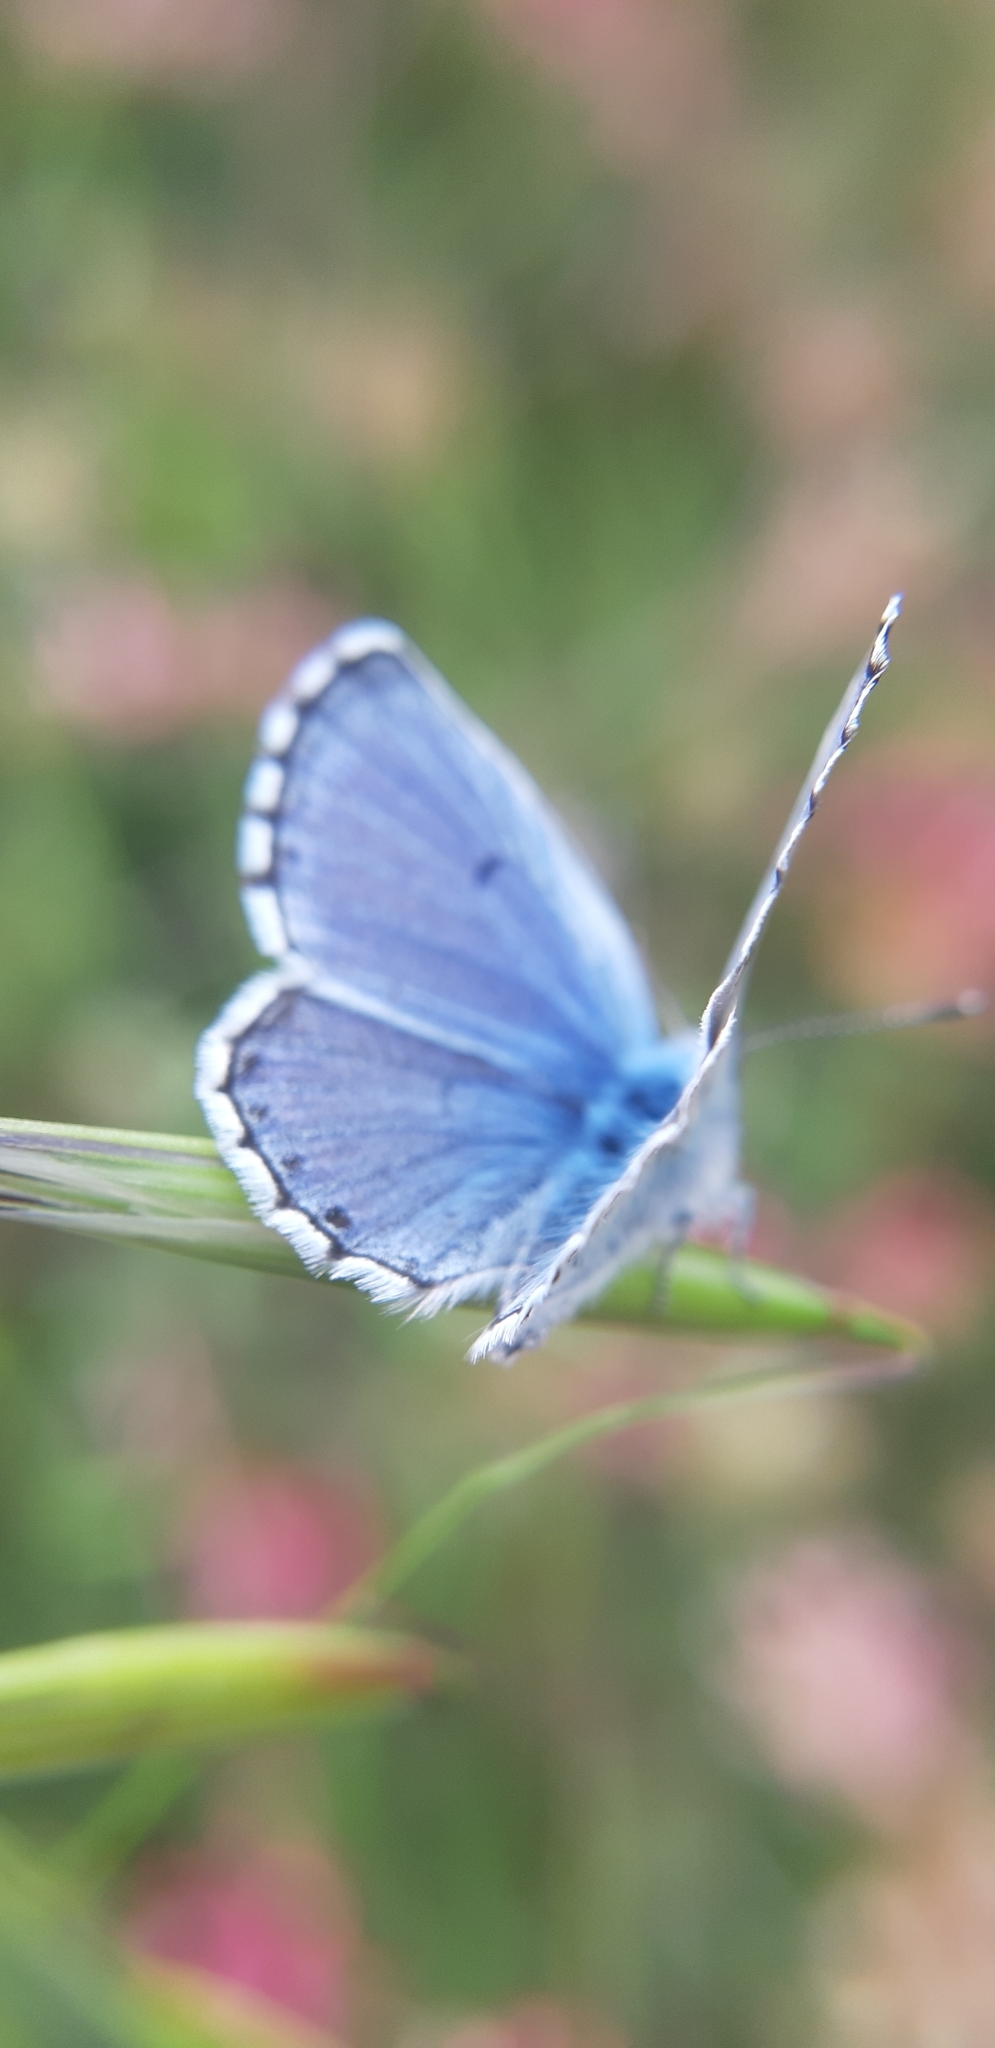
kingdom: Animalia
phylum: Arthropoda
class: Insecta
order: Lepidoptera
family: Lycaenidae
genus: Pseudophilotes
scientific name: Pseudophilotes baton
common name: Baton blue
